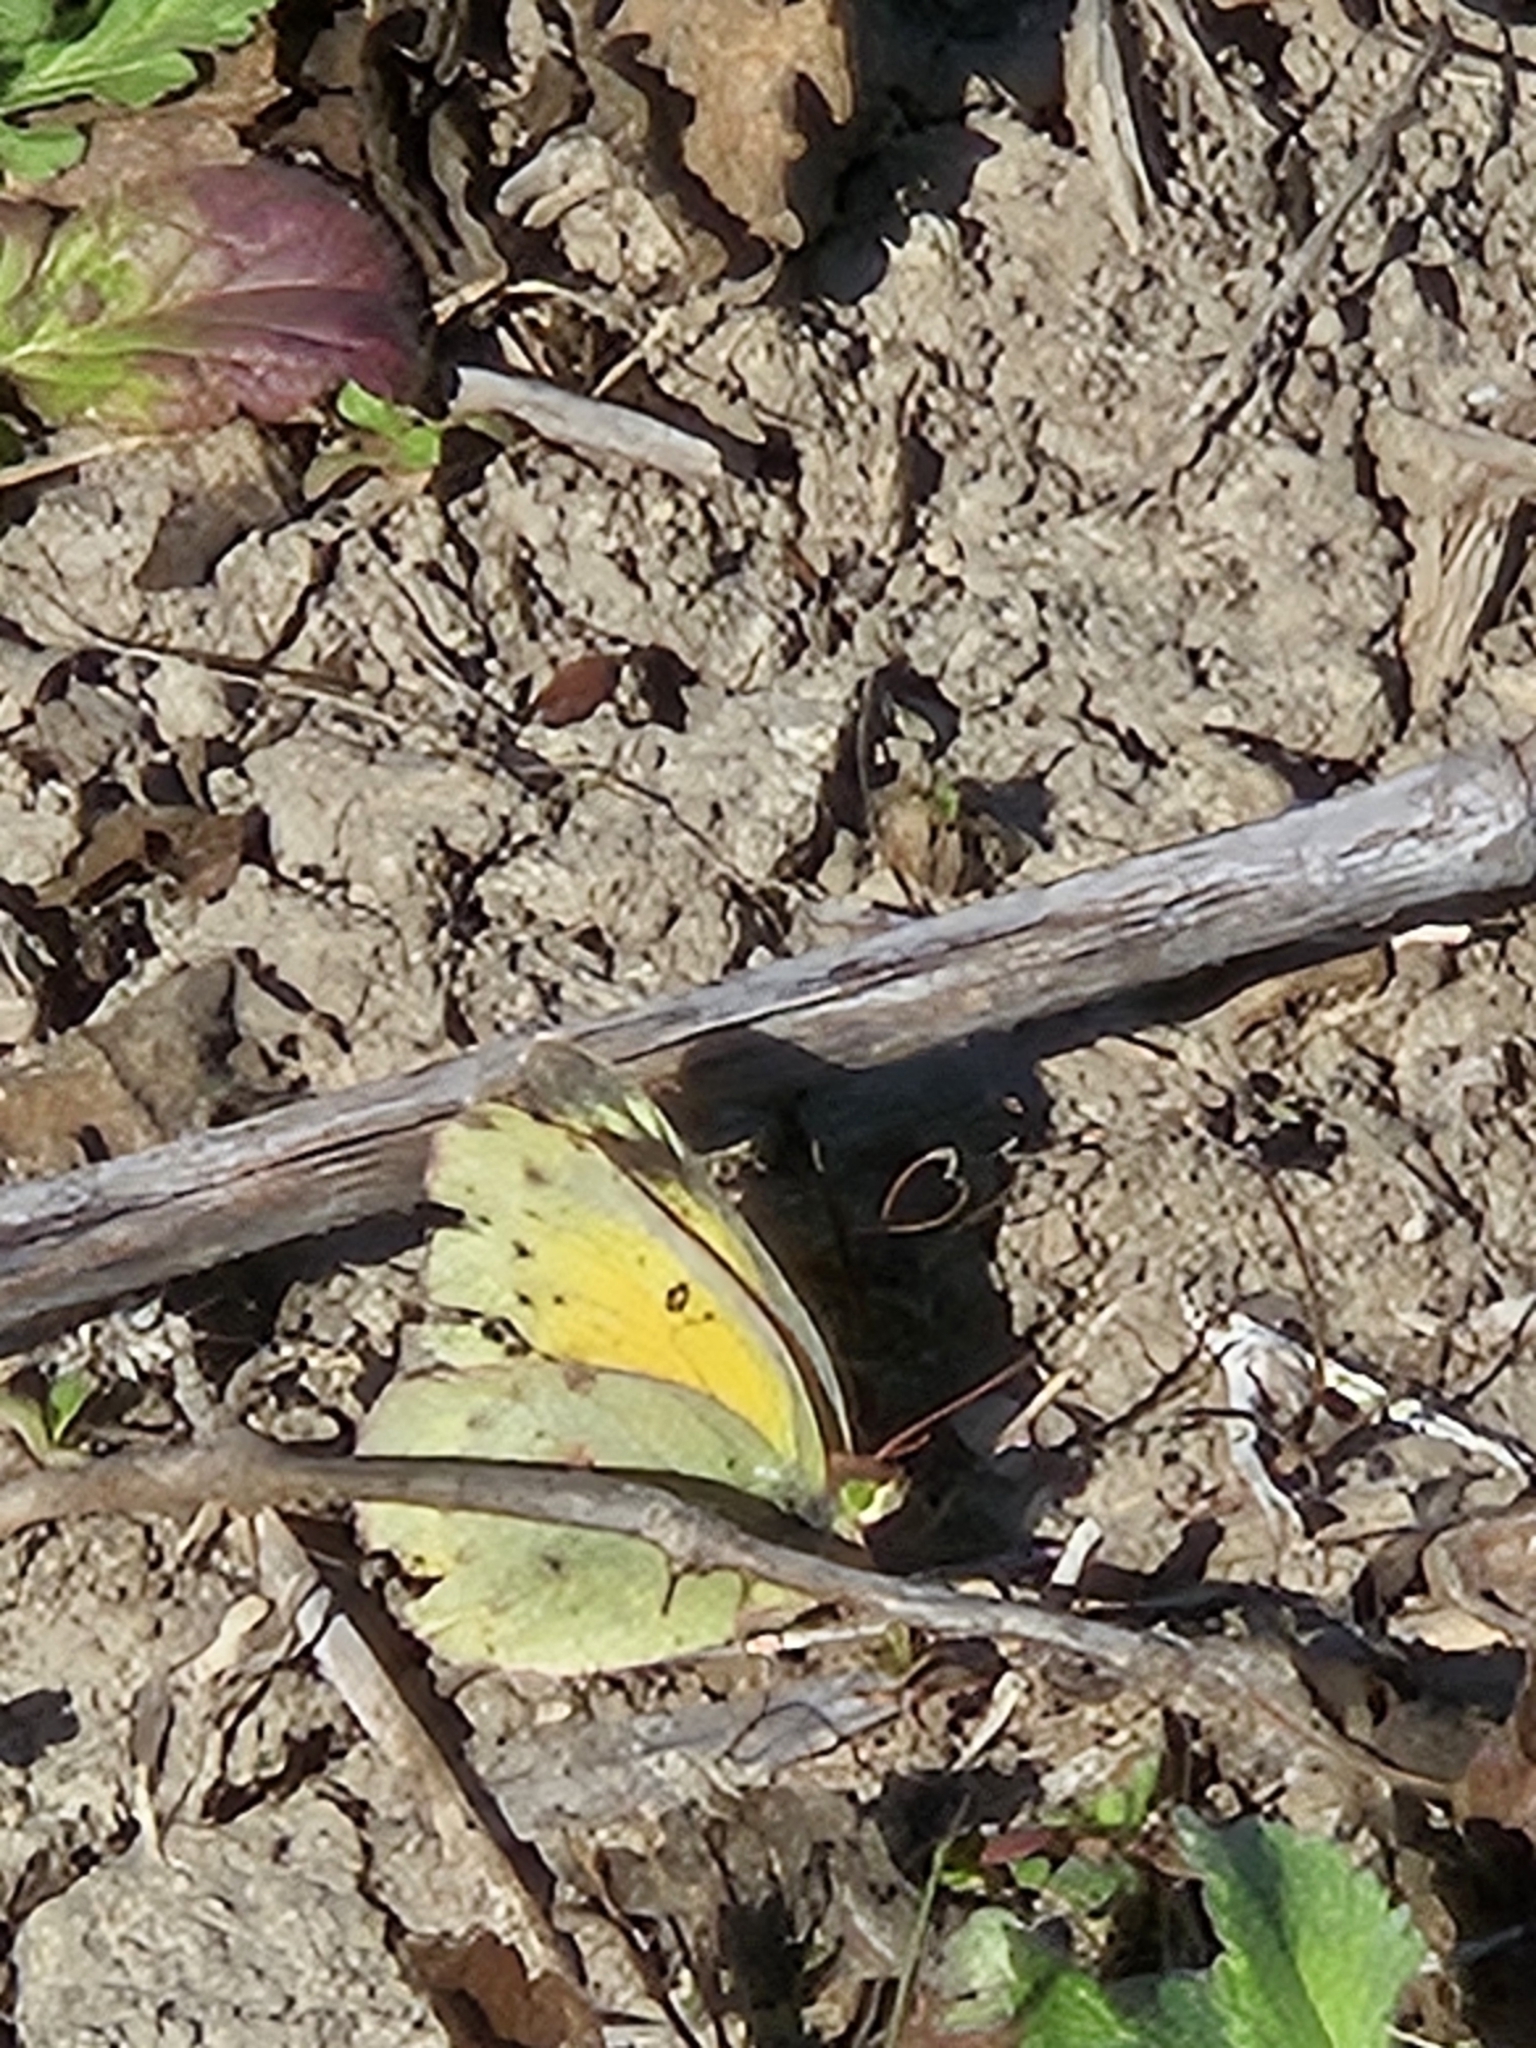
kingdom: Animalia
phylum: Arthropoda
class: Insecta
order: Lepidoptera
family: Pieridae
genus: Colias
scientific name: Colias eurytheme
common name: Alfalfa butterfly
